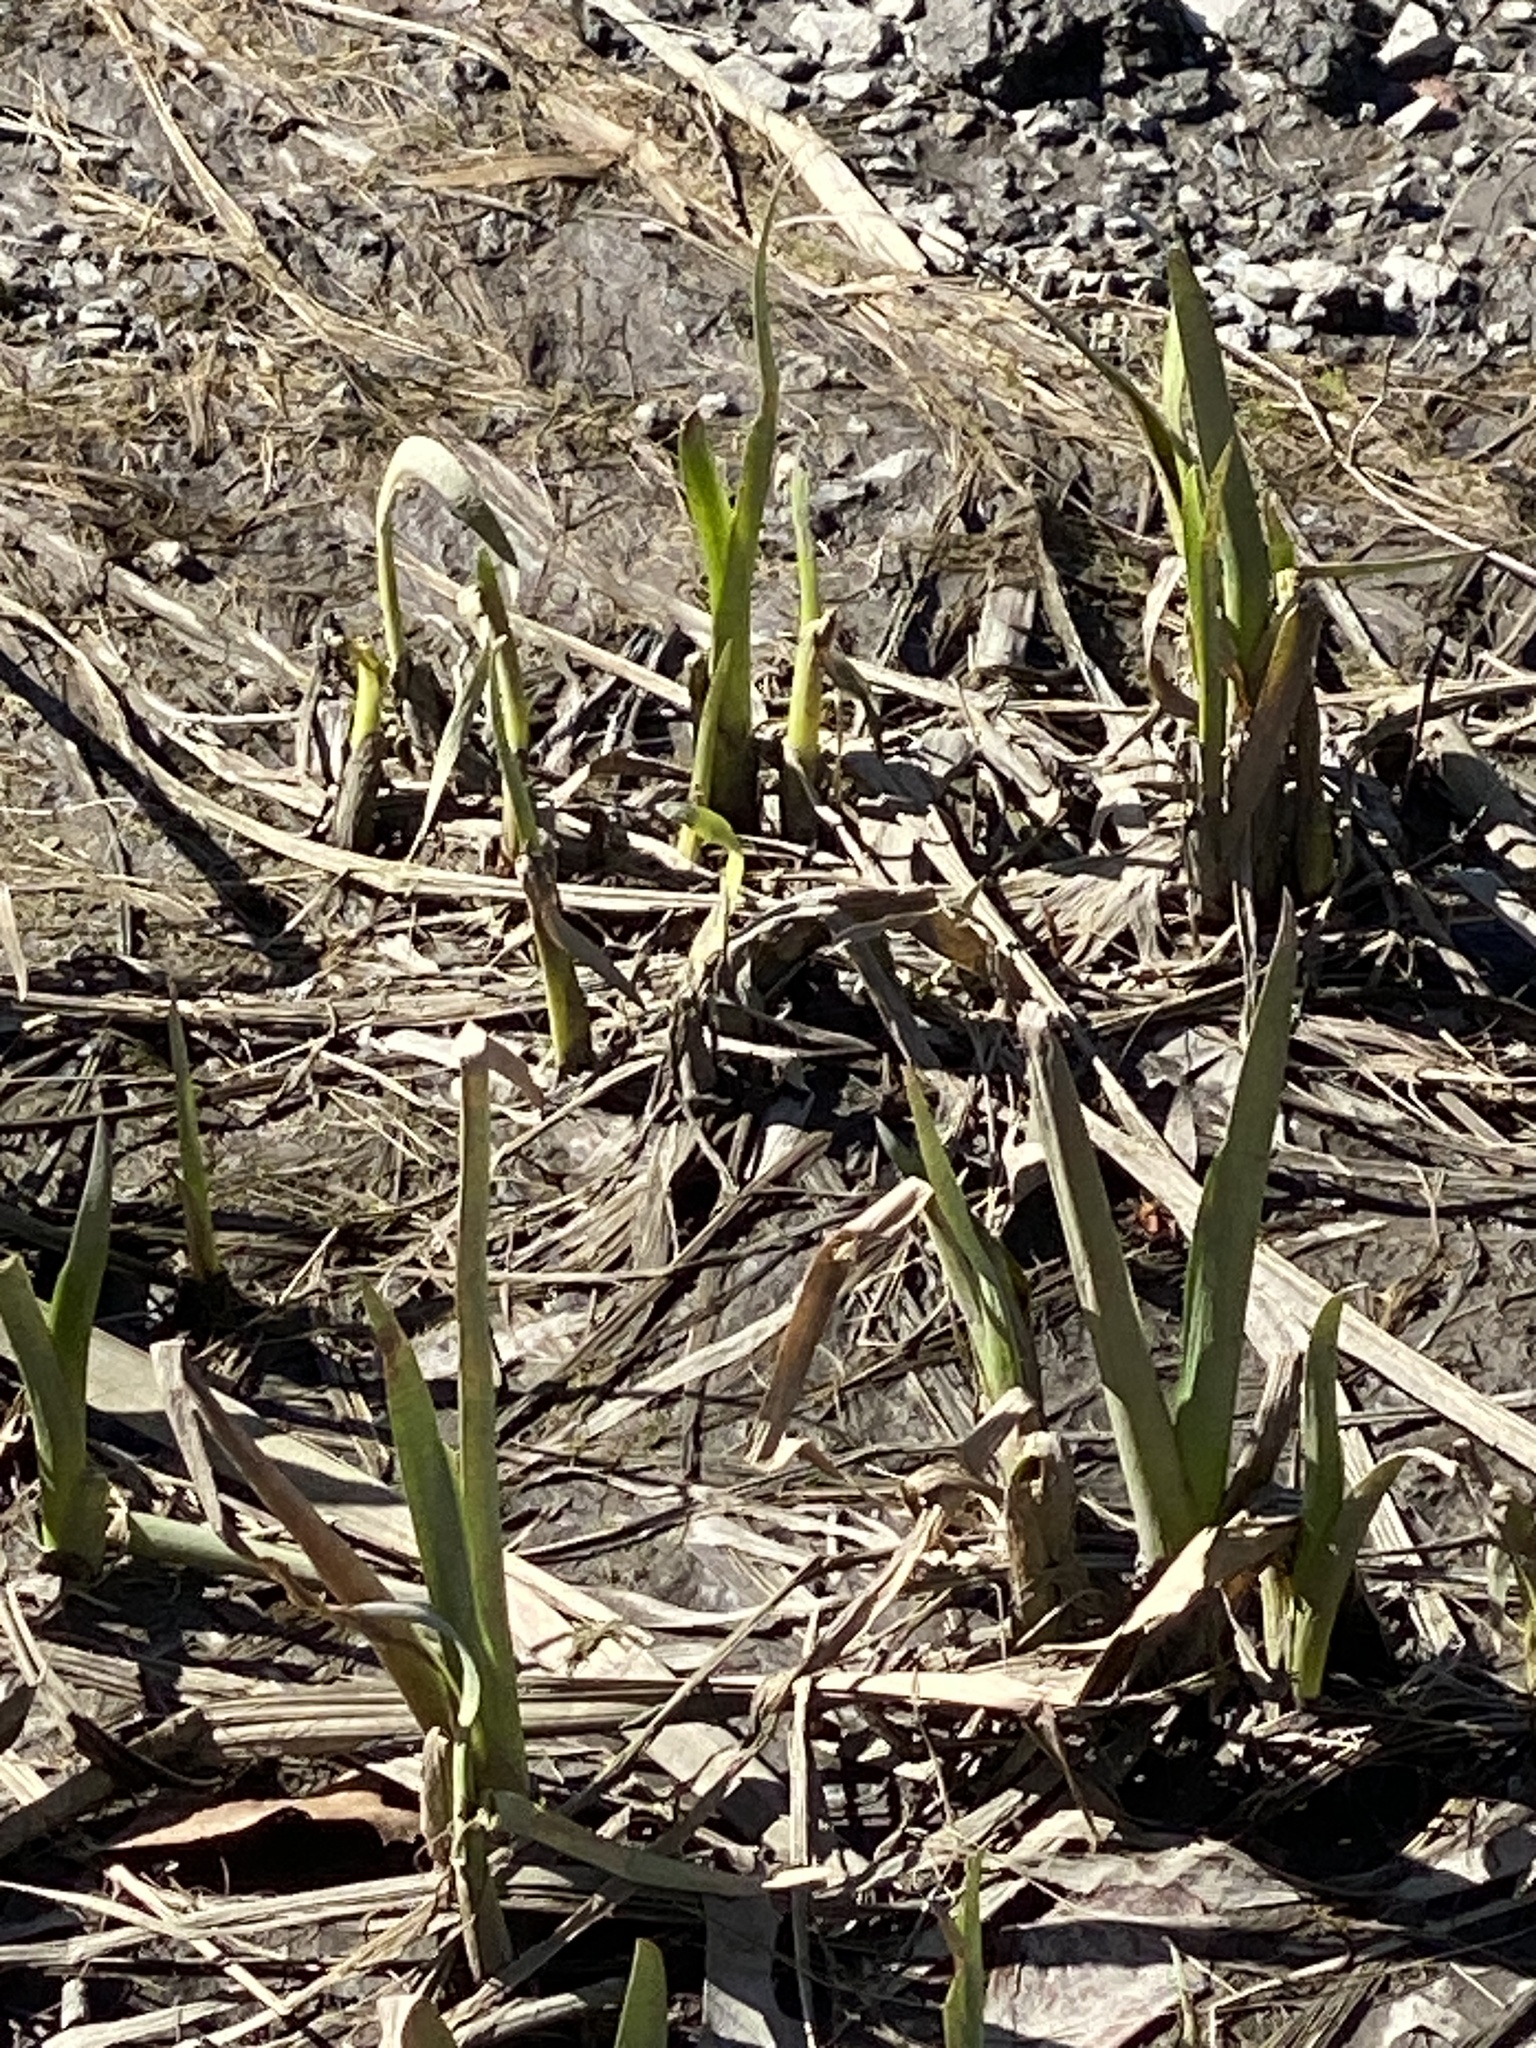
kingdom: Plantae
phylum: Tracheophyta
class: Liliopsida
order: Poales
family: Poaceae
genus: Phragmites
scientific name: Phragmites australis
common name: Common reed
